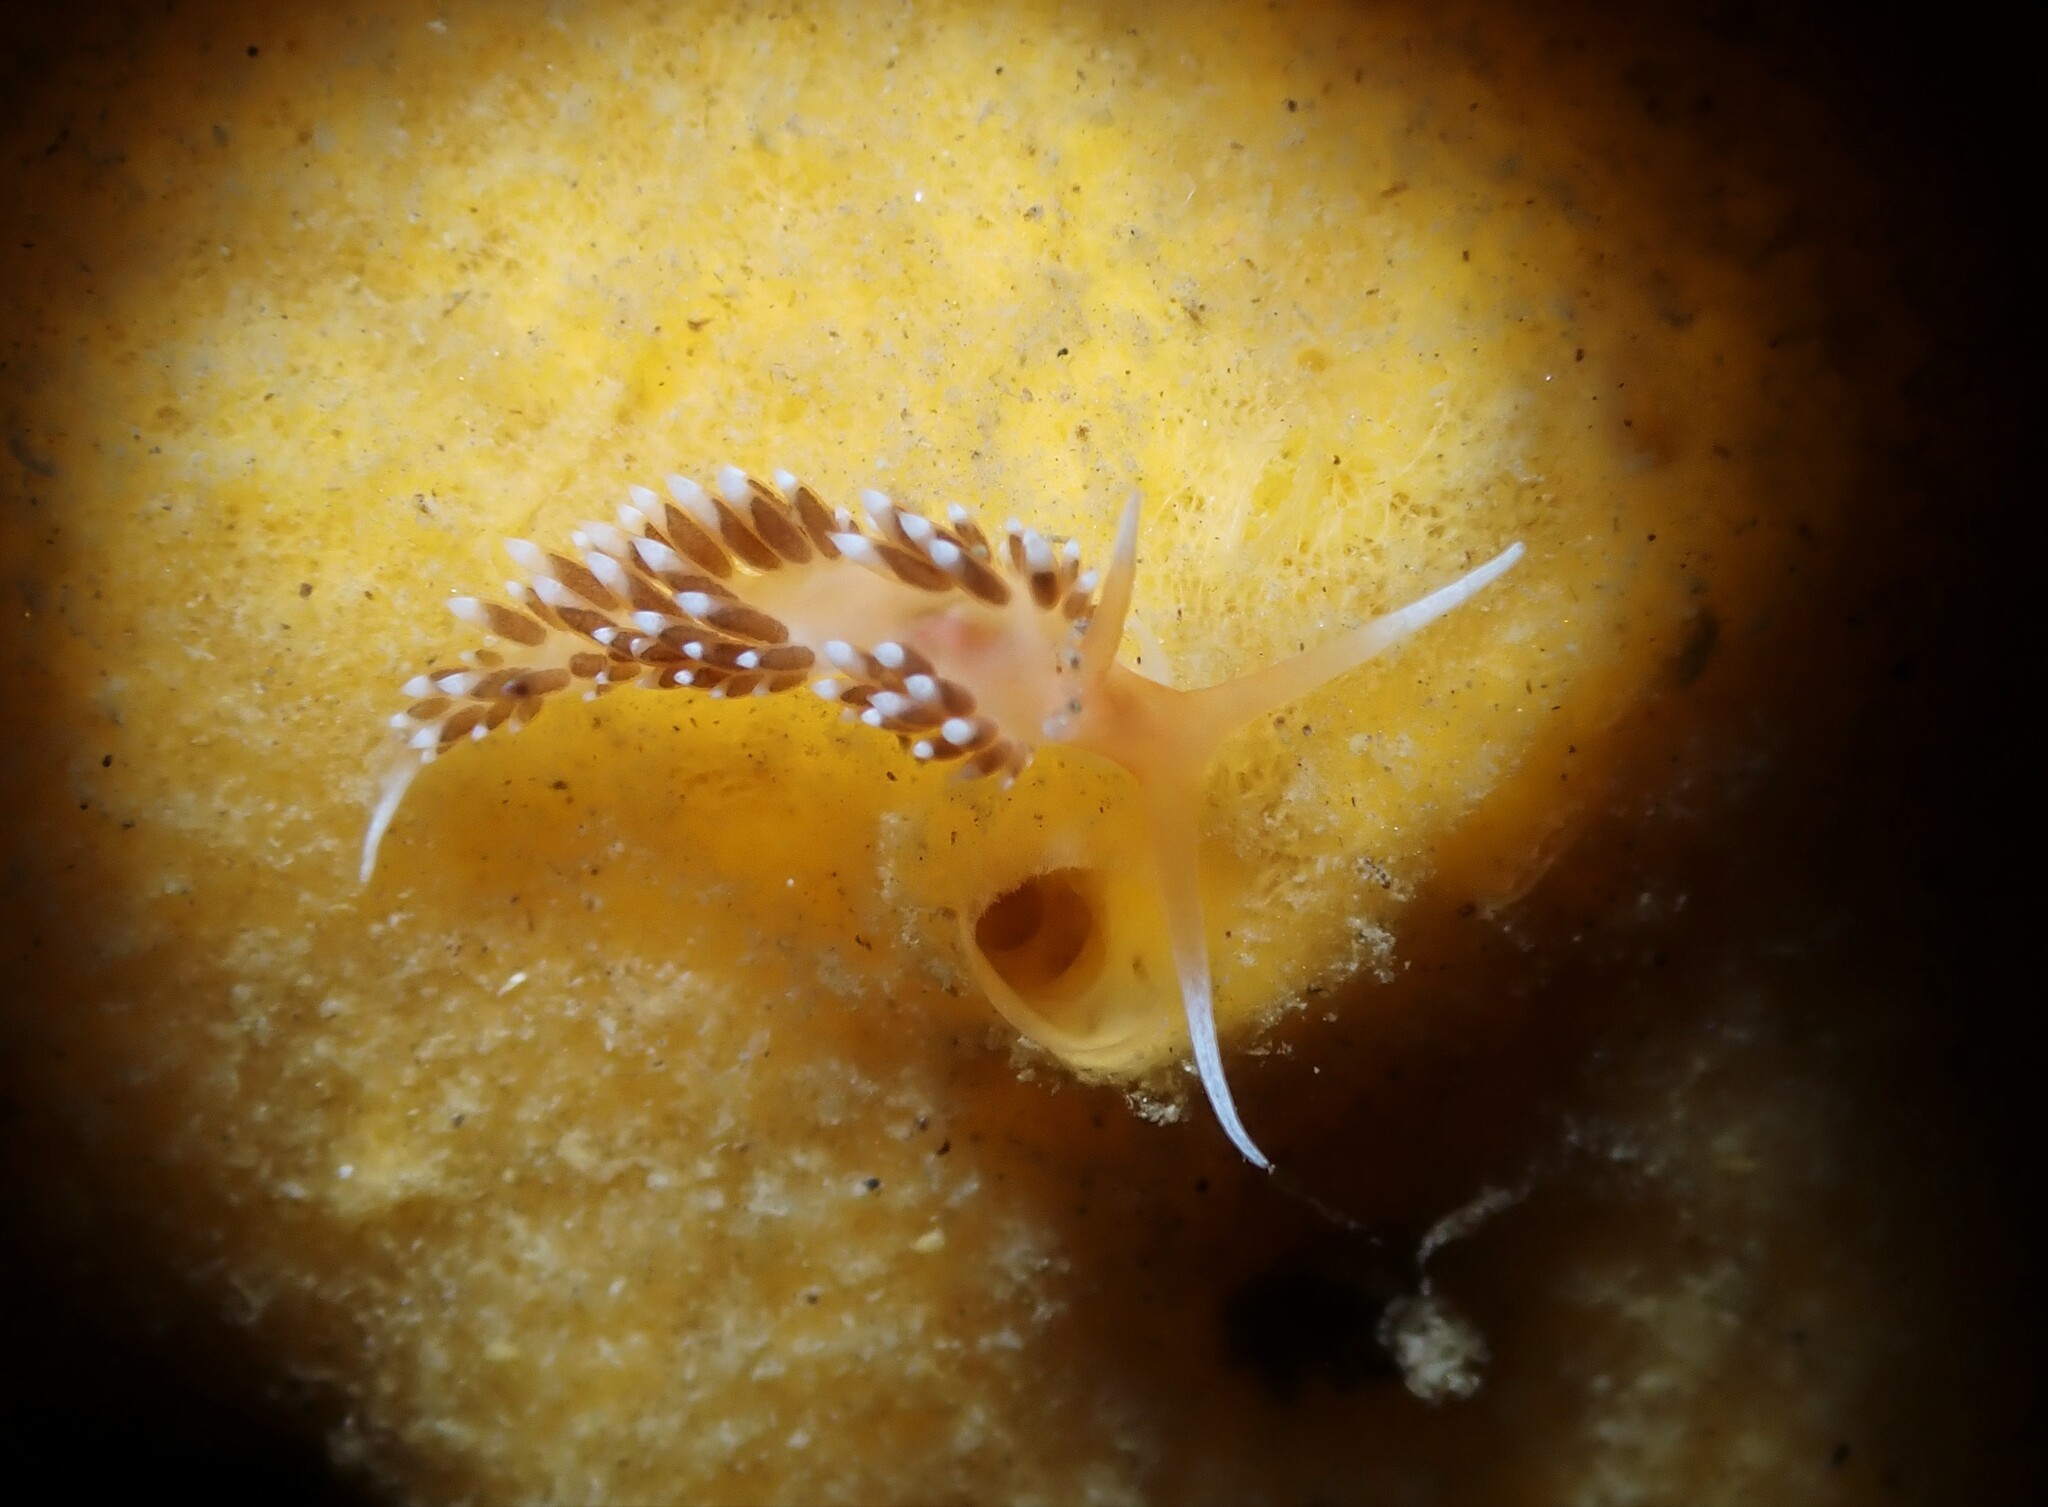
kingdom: Animalia
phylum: Mollusca
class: Gastropoda
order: Nudibranchia
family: Facelinidae
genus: Phidiana
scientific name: Phidiana milleri
